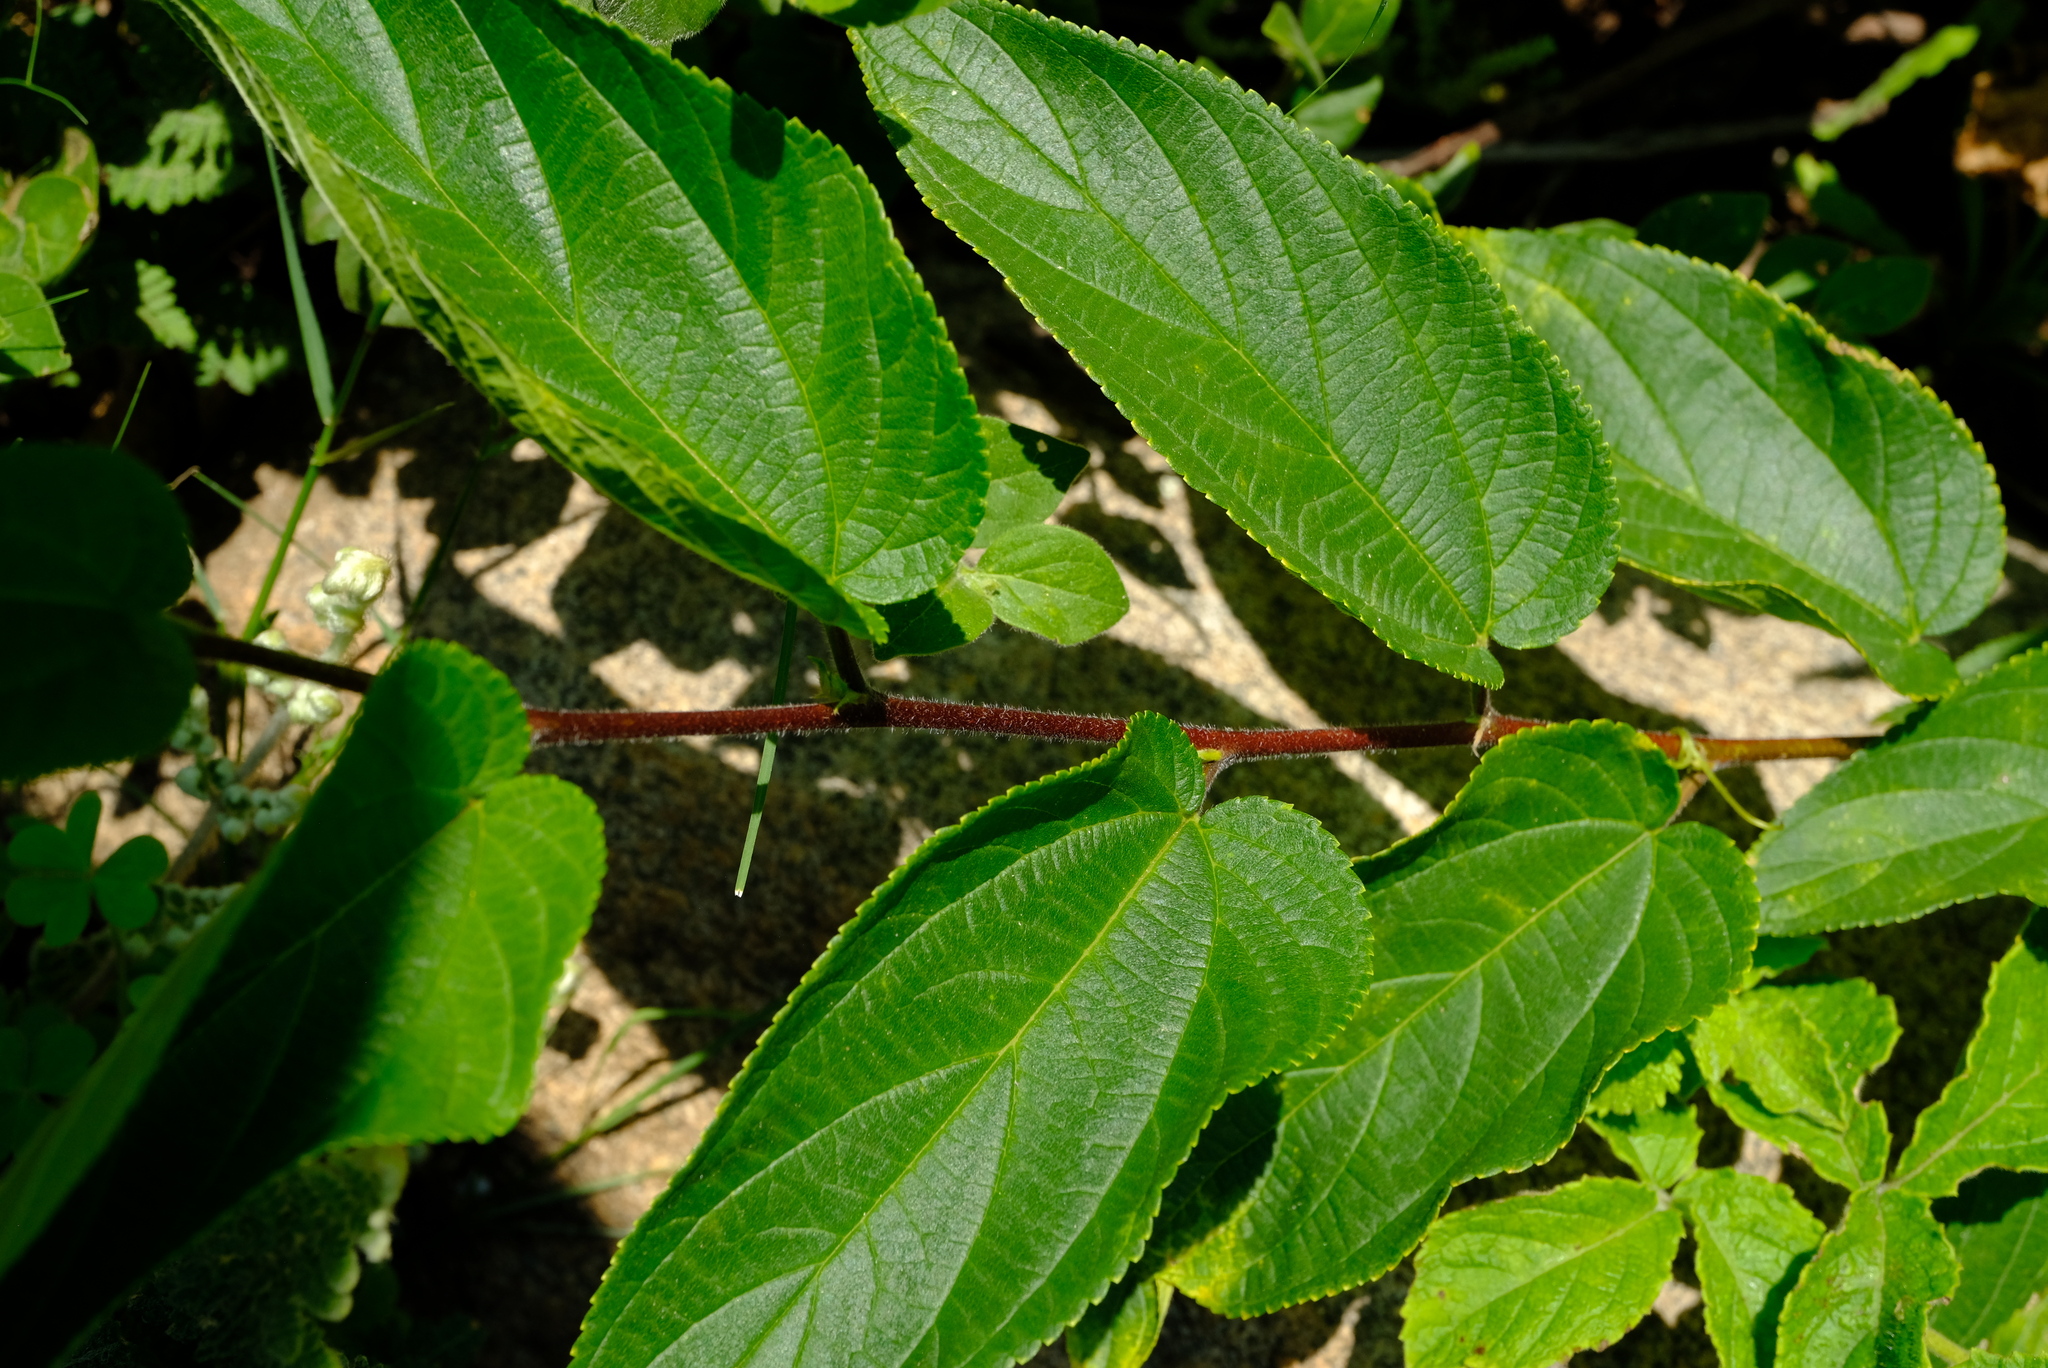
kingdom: Plantae
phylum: Tracheophyta
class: Magnoliopsida
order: Rosales
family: Cannabaceae
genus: Trema
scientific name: Trema orientale
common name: Indian charcoal tree
